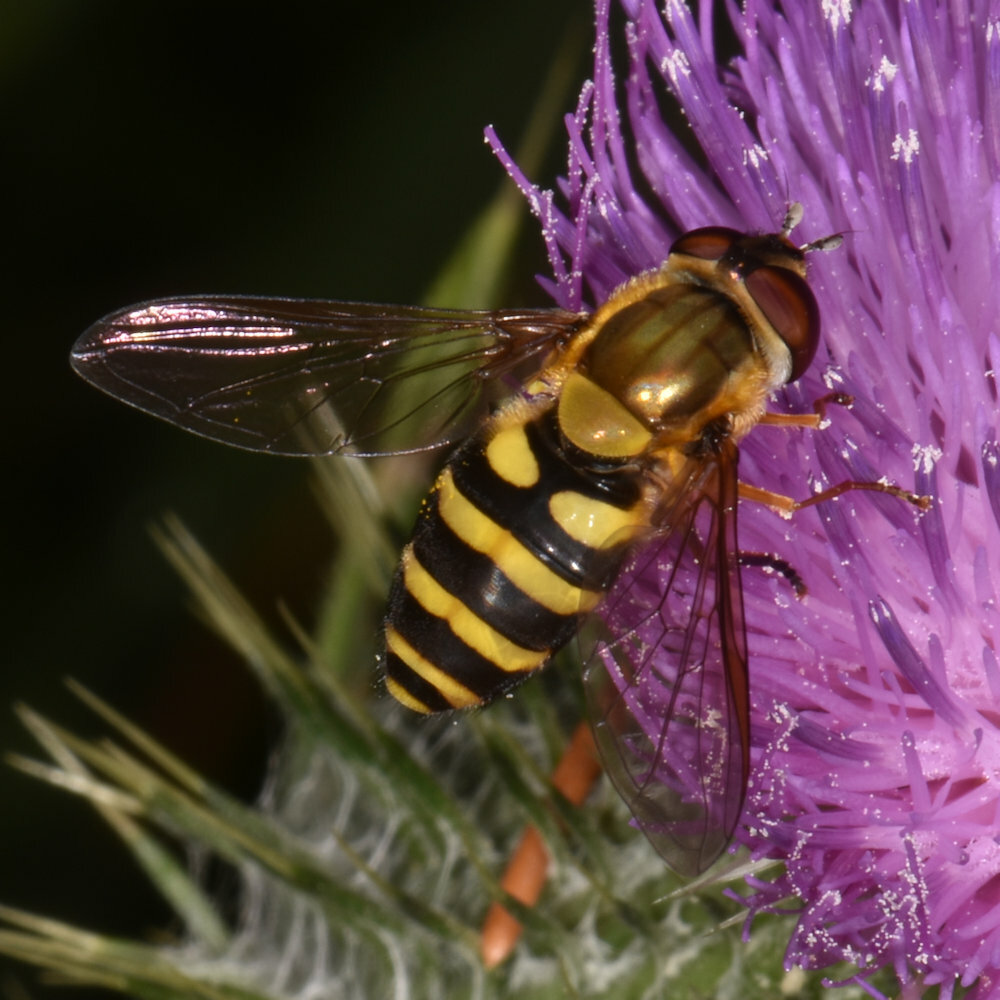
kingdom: Animalia
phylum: Arthropoda
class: Insecta
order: Diptera
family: Syrphidae
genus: Syrphus
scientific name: Syrphus
